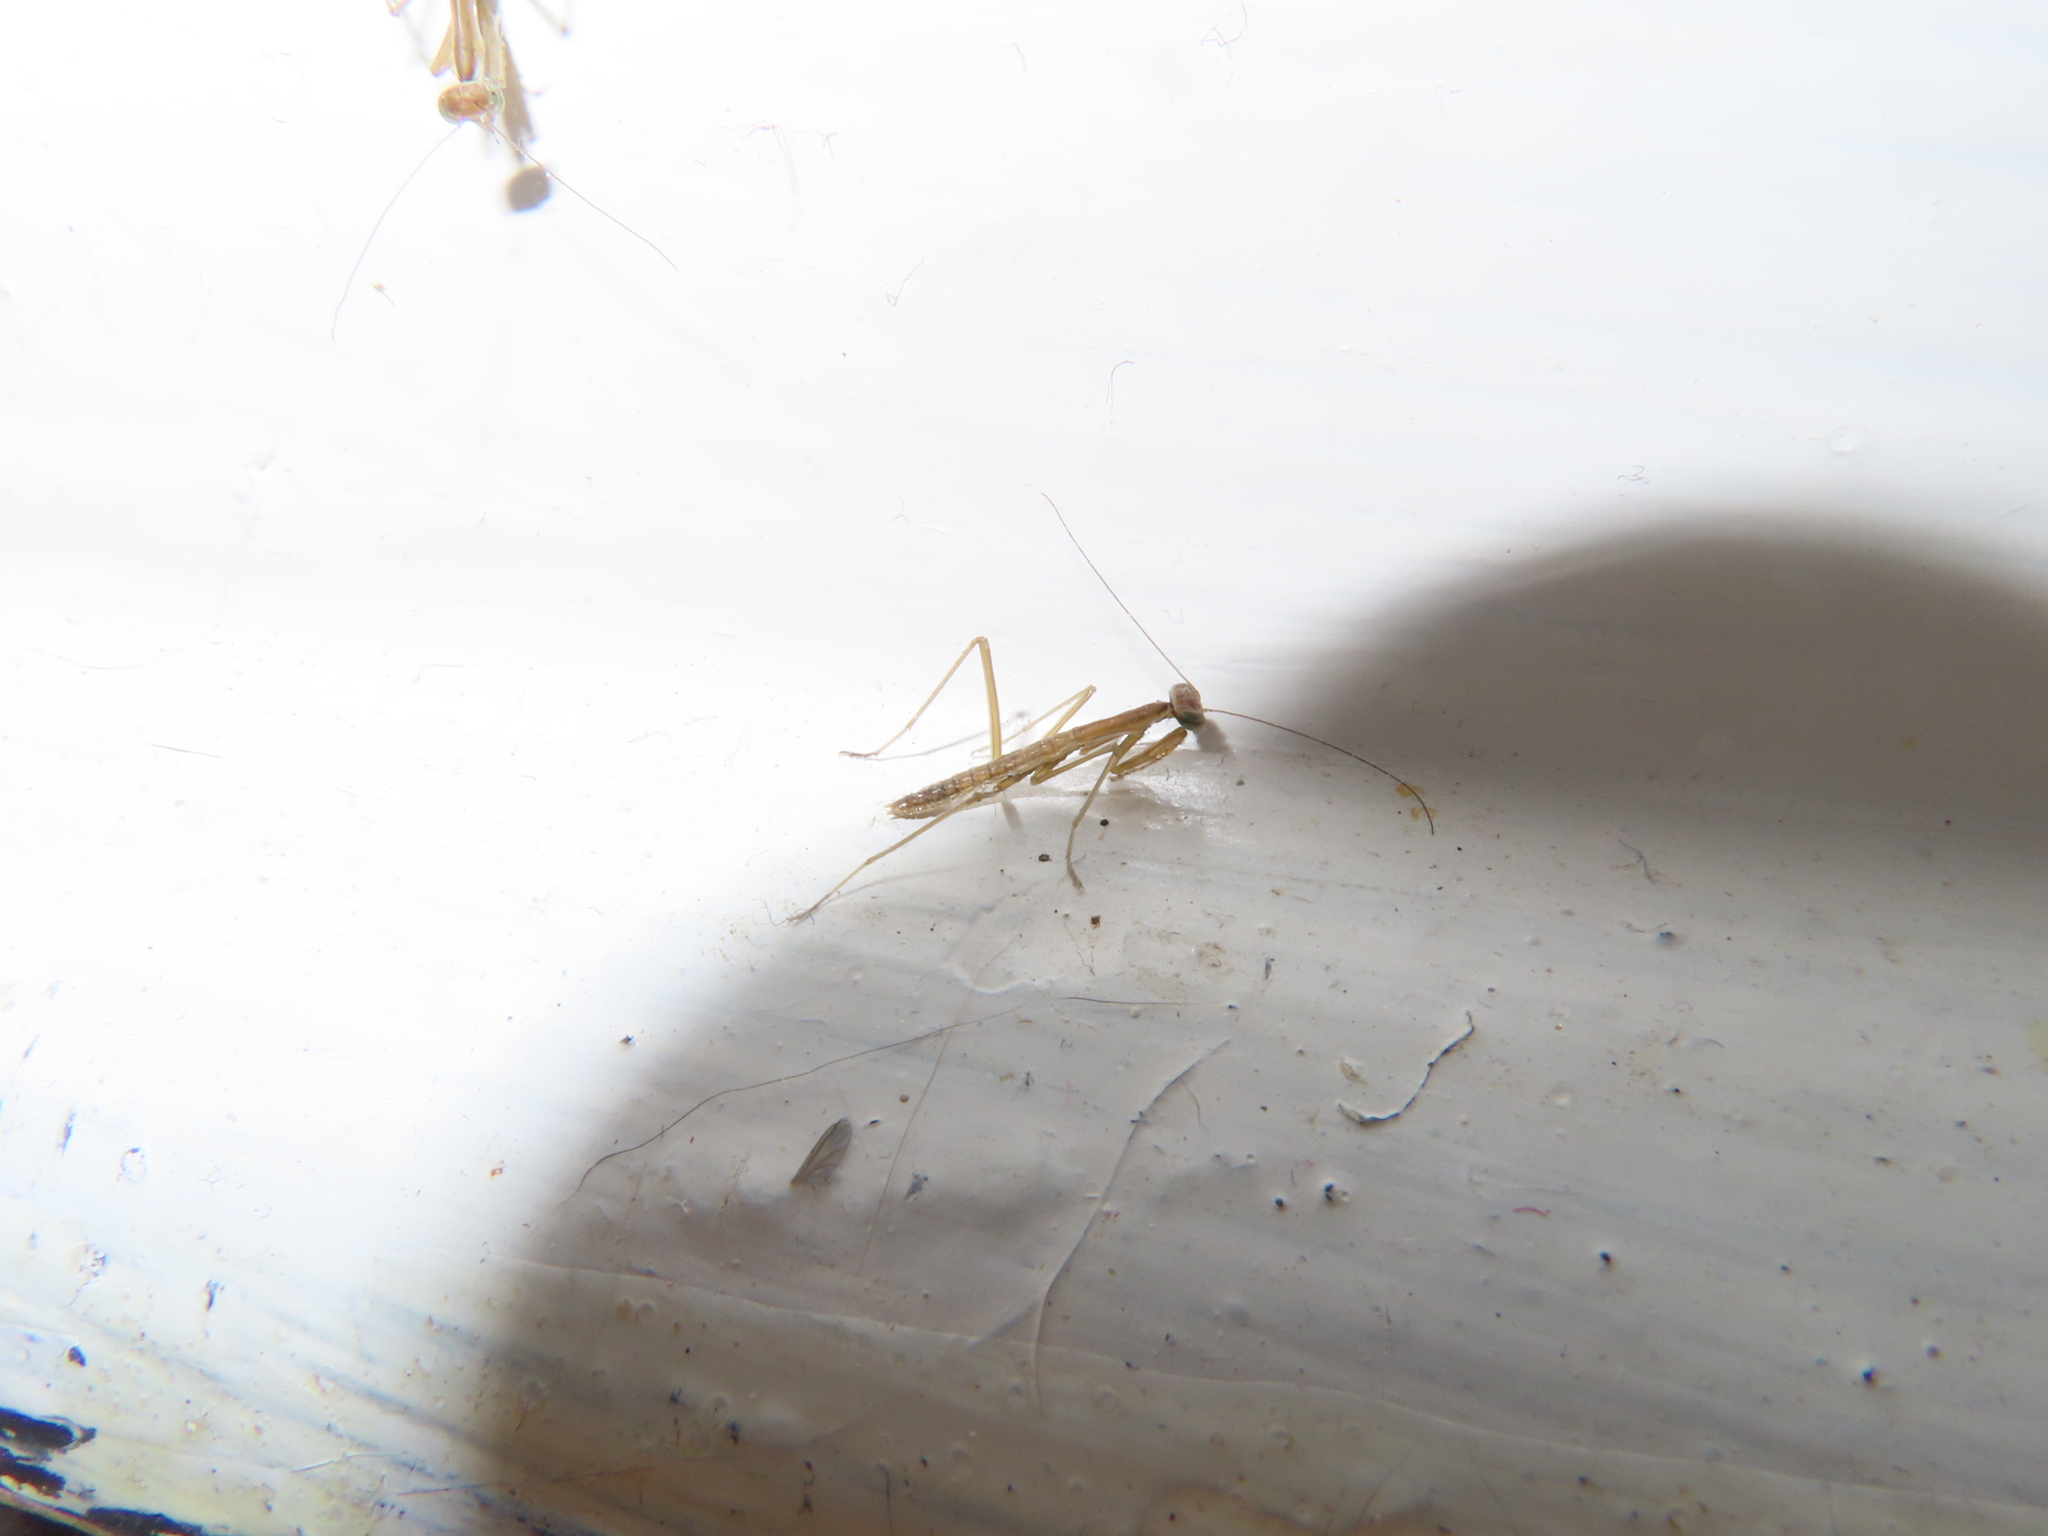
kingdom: Animalia
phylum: Arthropoda
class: Insecta
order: Mantodea
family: Mantidae
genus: Tenodera
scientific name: Tenodera sinensis
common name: Chinese mantis
